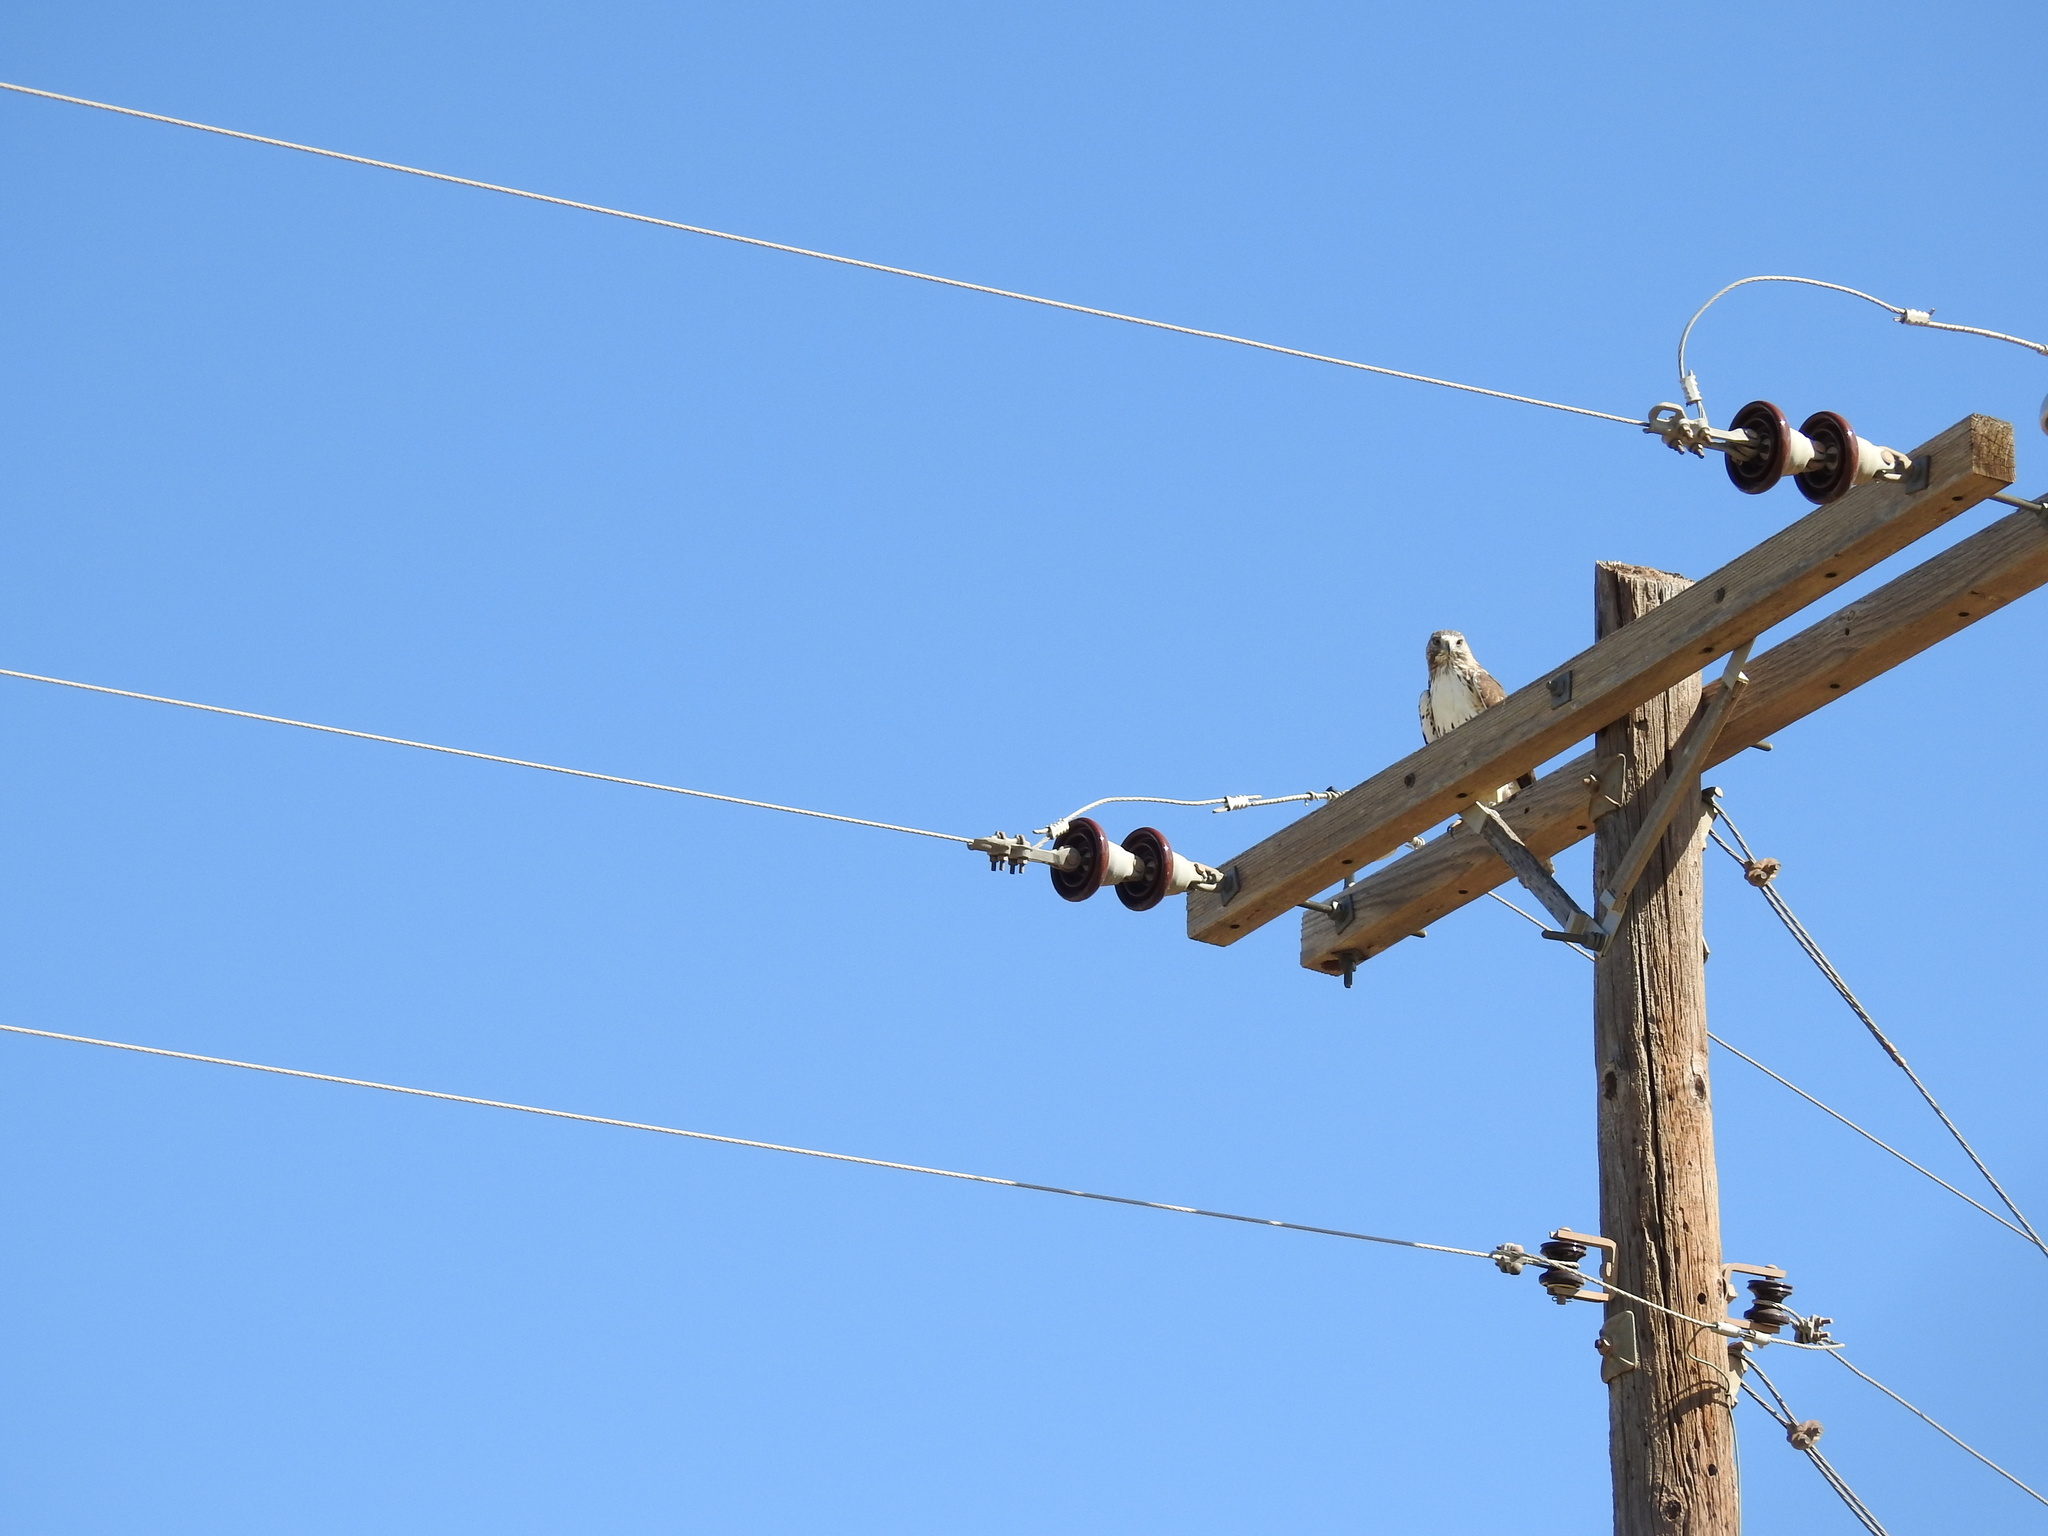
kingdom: Animalia
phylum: Chordata
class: Aves
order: Accipitriformes
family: Accipitridae
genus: Buteo
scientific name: Buteo jamaicensis
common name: Red-tailed hawk
